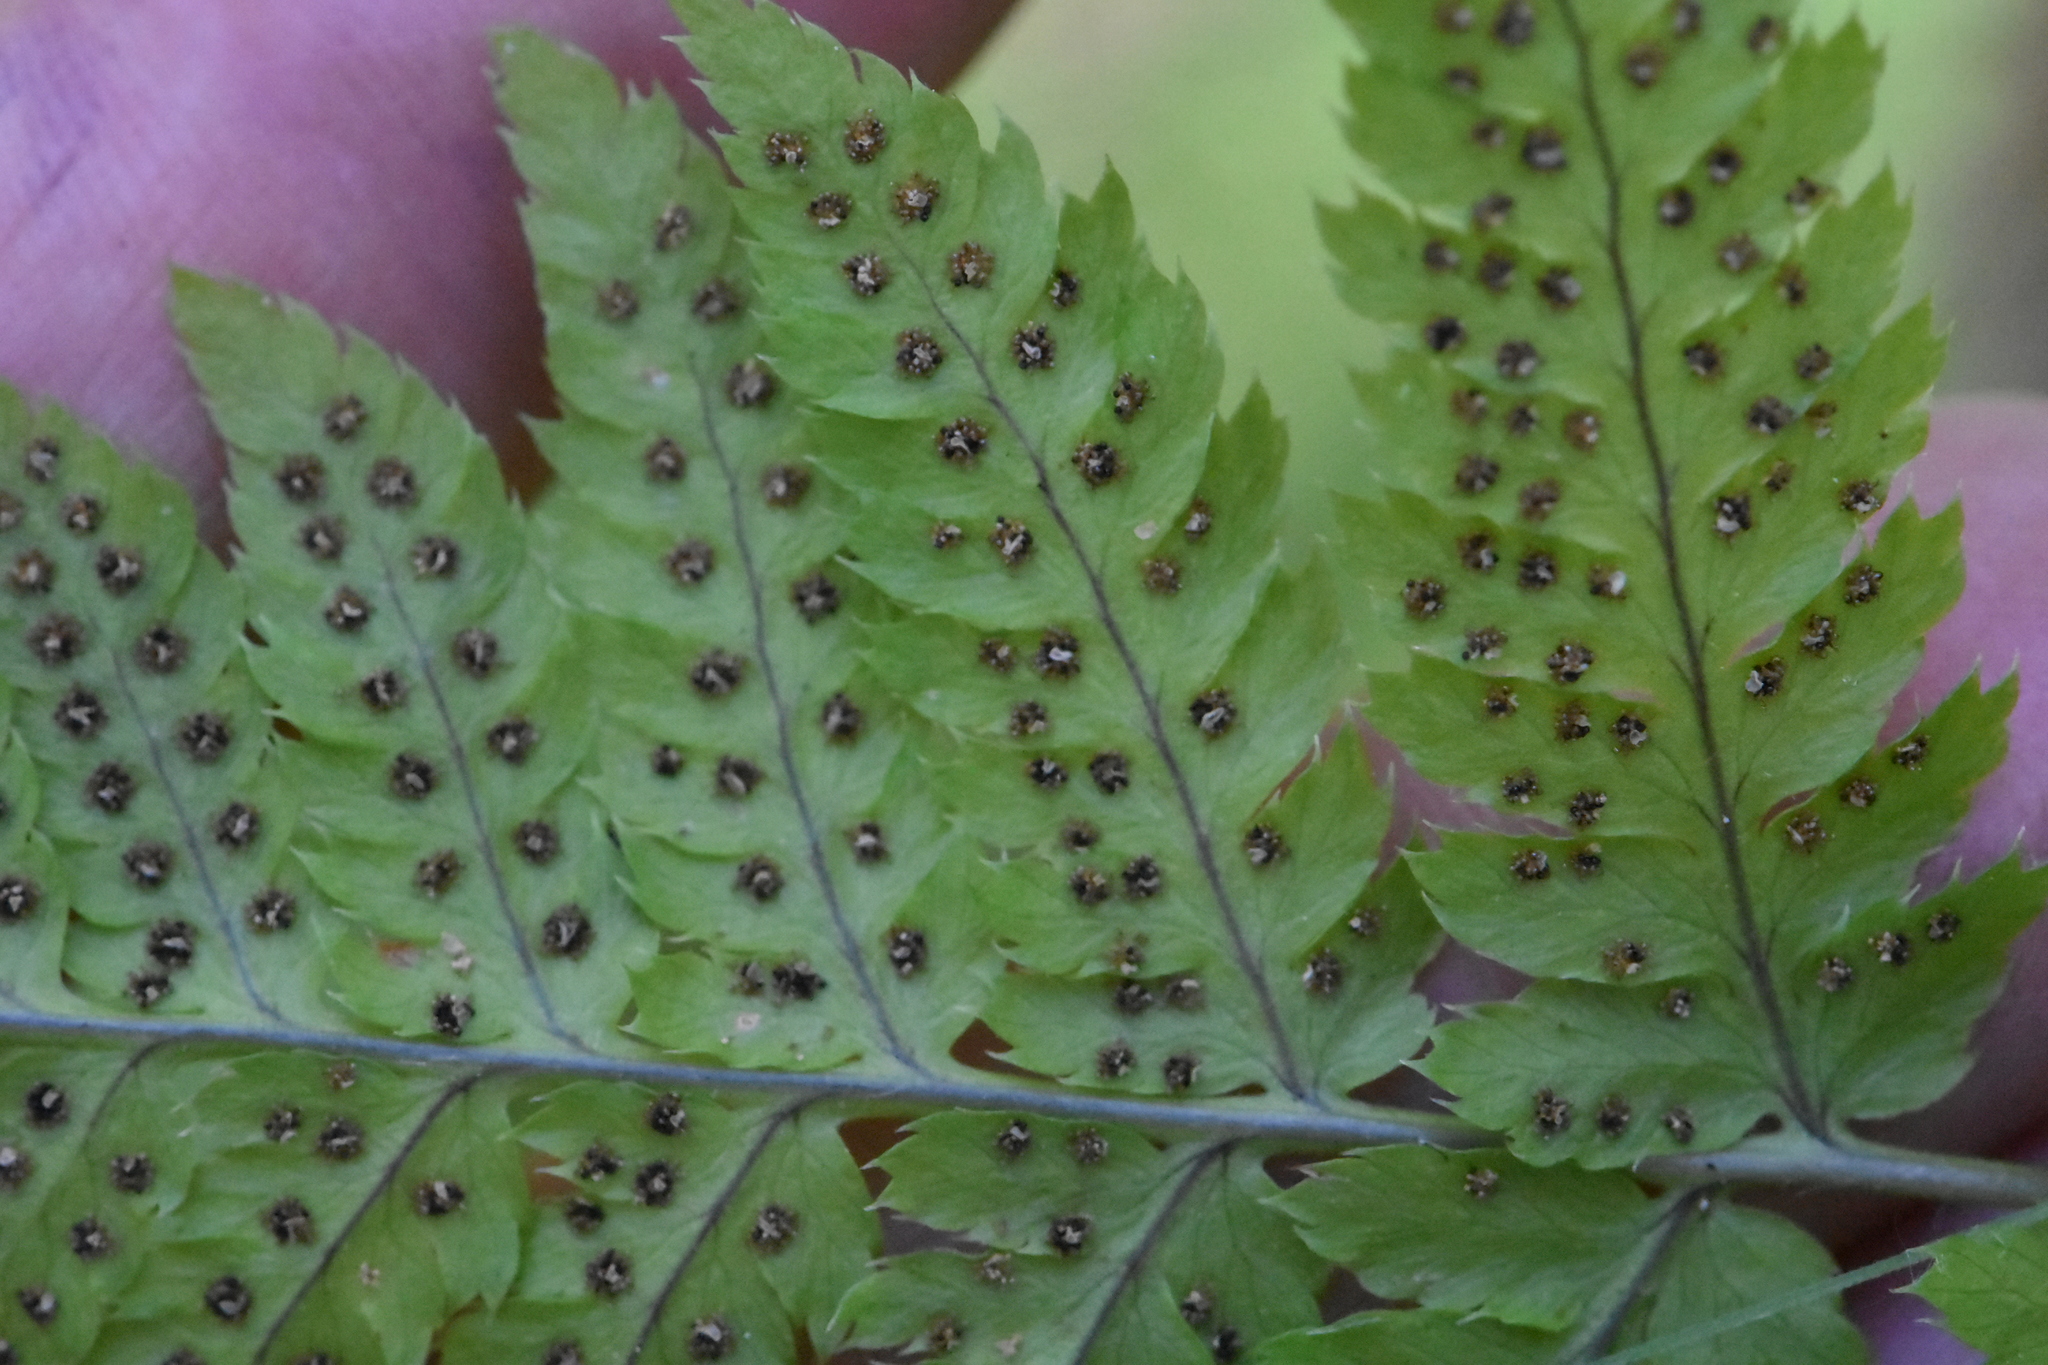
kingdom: Plantae
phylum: Tracheophyta
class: Polypodiopsida
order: Polypodiales
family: Dryopteridaceae
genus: Dryopteris
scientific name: Dryopteris carthusiana
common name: Narrow buckler-fern
